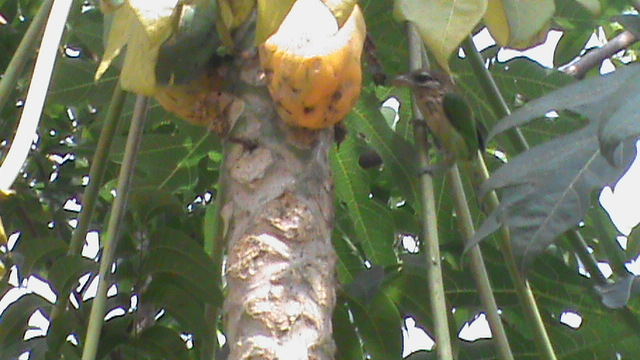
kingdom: Animalia
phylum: Chordata
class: Aves
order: Piciformes
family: Megalaimidae
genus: Psilopogon
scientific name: Psilopogon viridis
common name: White-cheeked barbet
